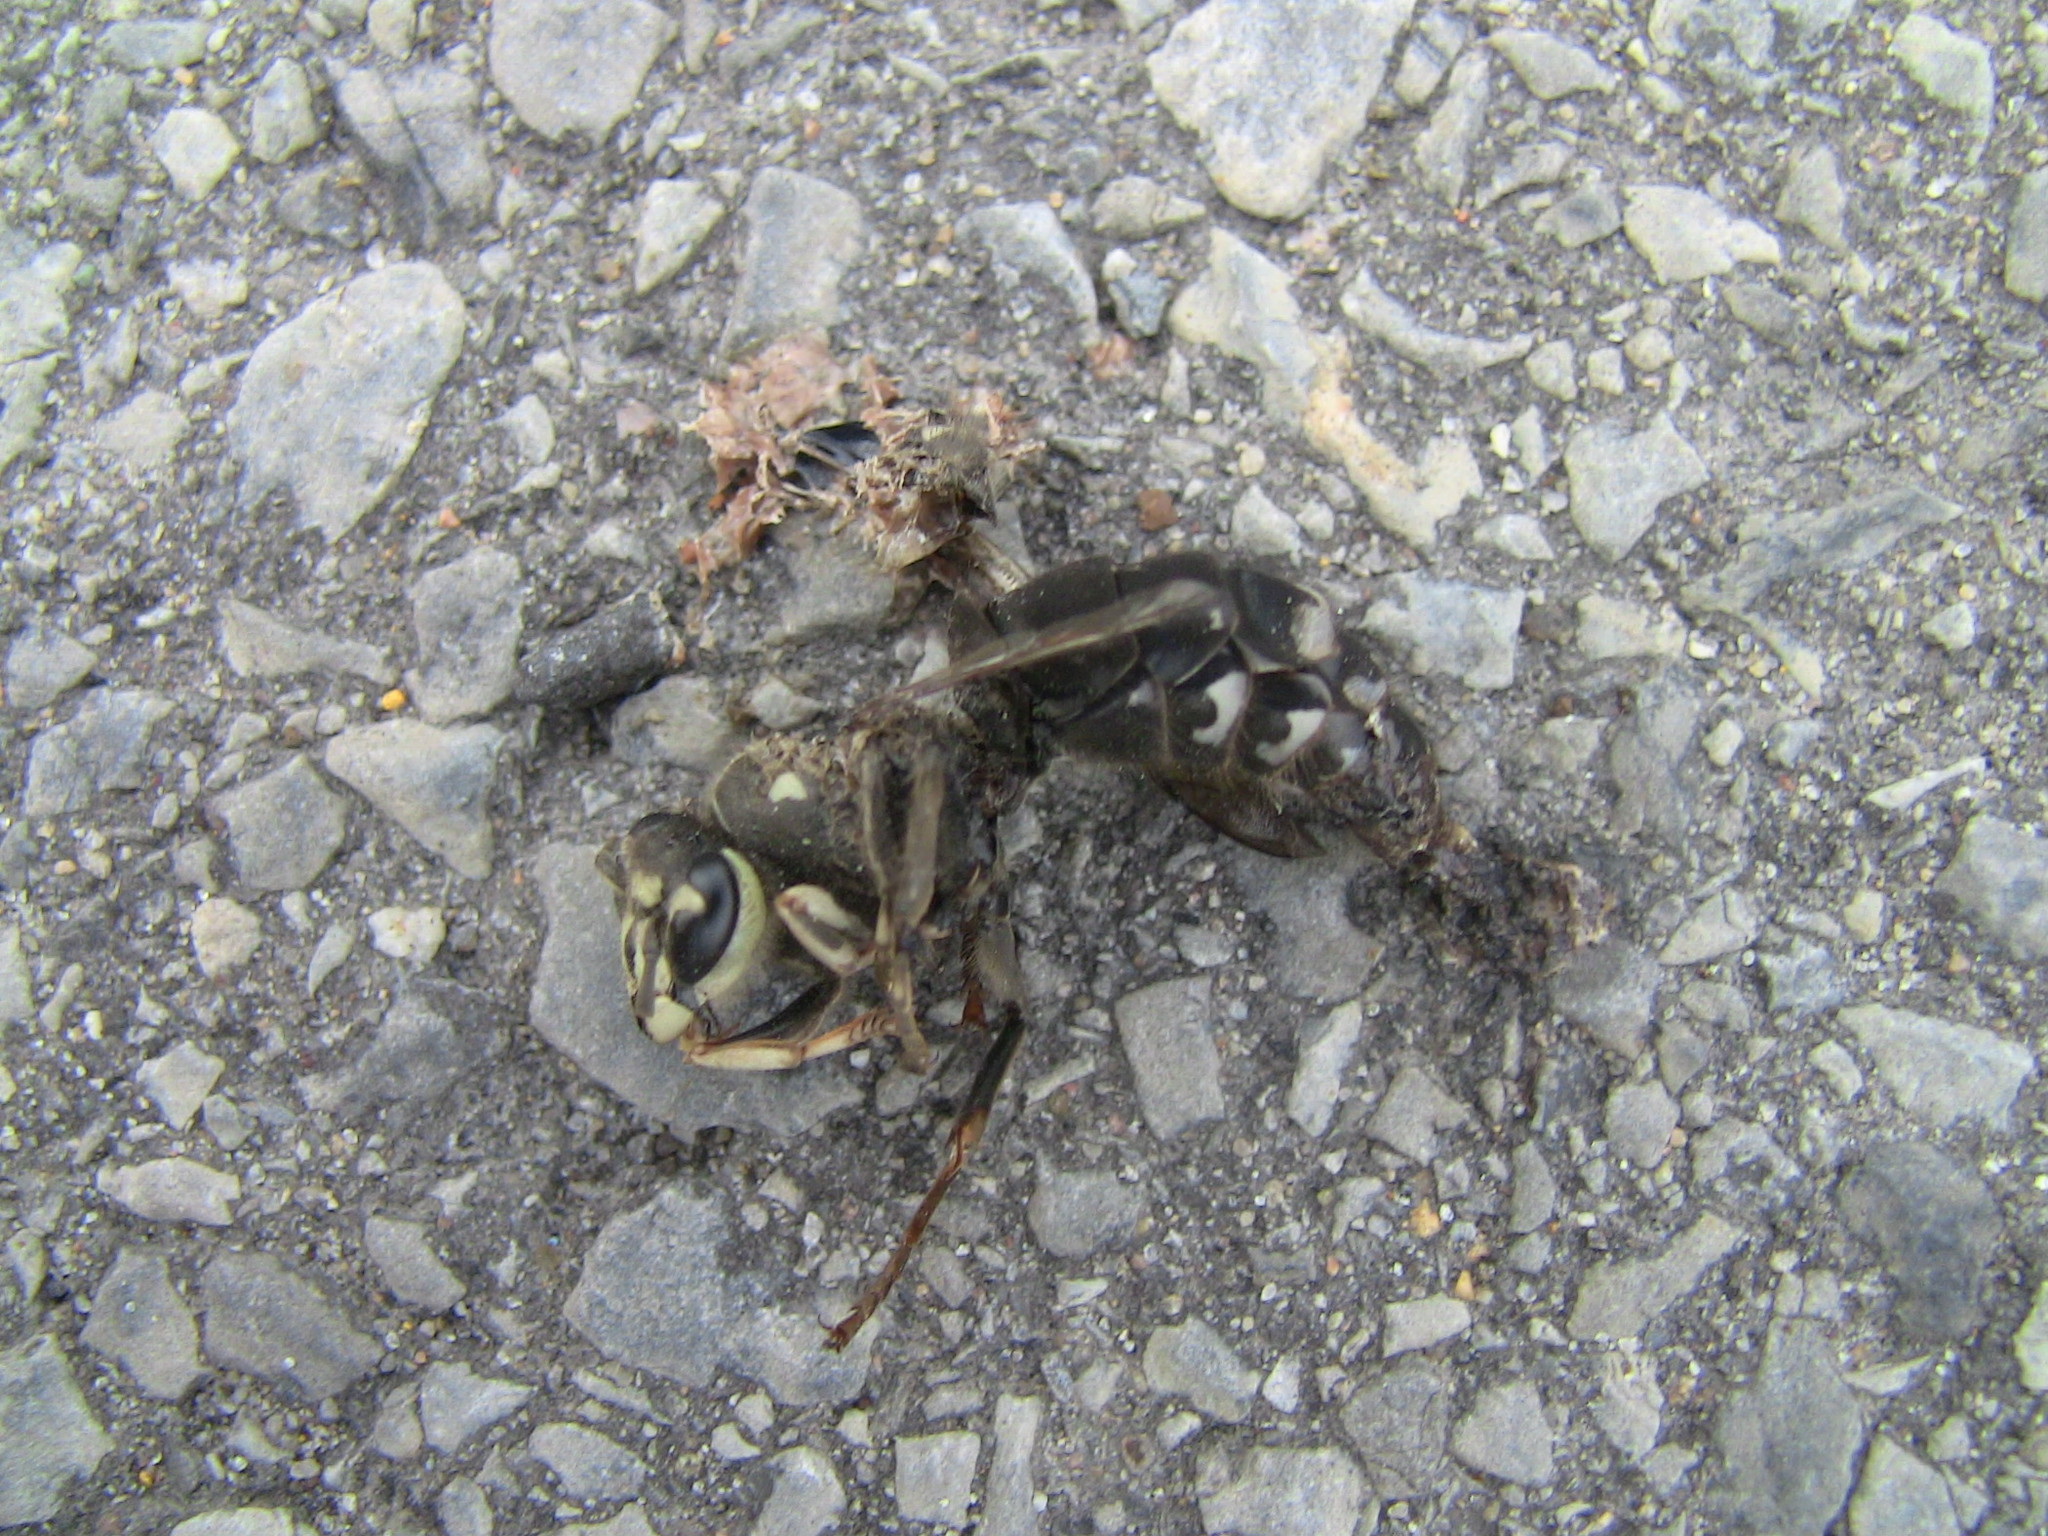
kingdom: Animalia
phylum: Arthropoda
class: Insecta
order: Hymenoptera
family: Vespidae
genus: Dolichovespula
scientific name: Dolichovespula maculata
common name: Bald-faced hornet
